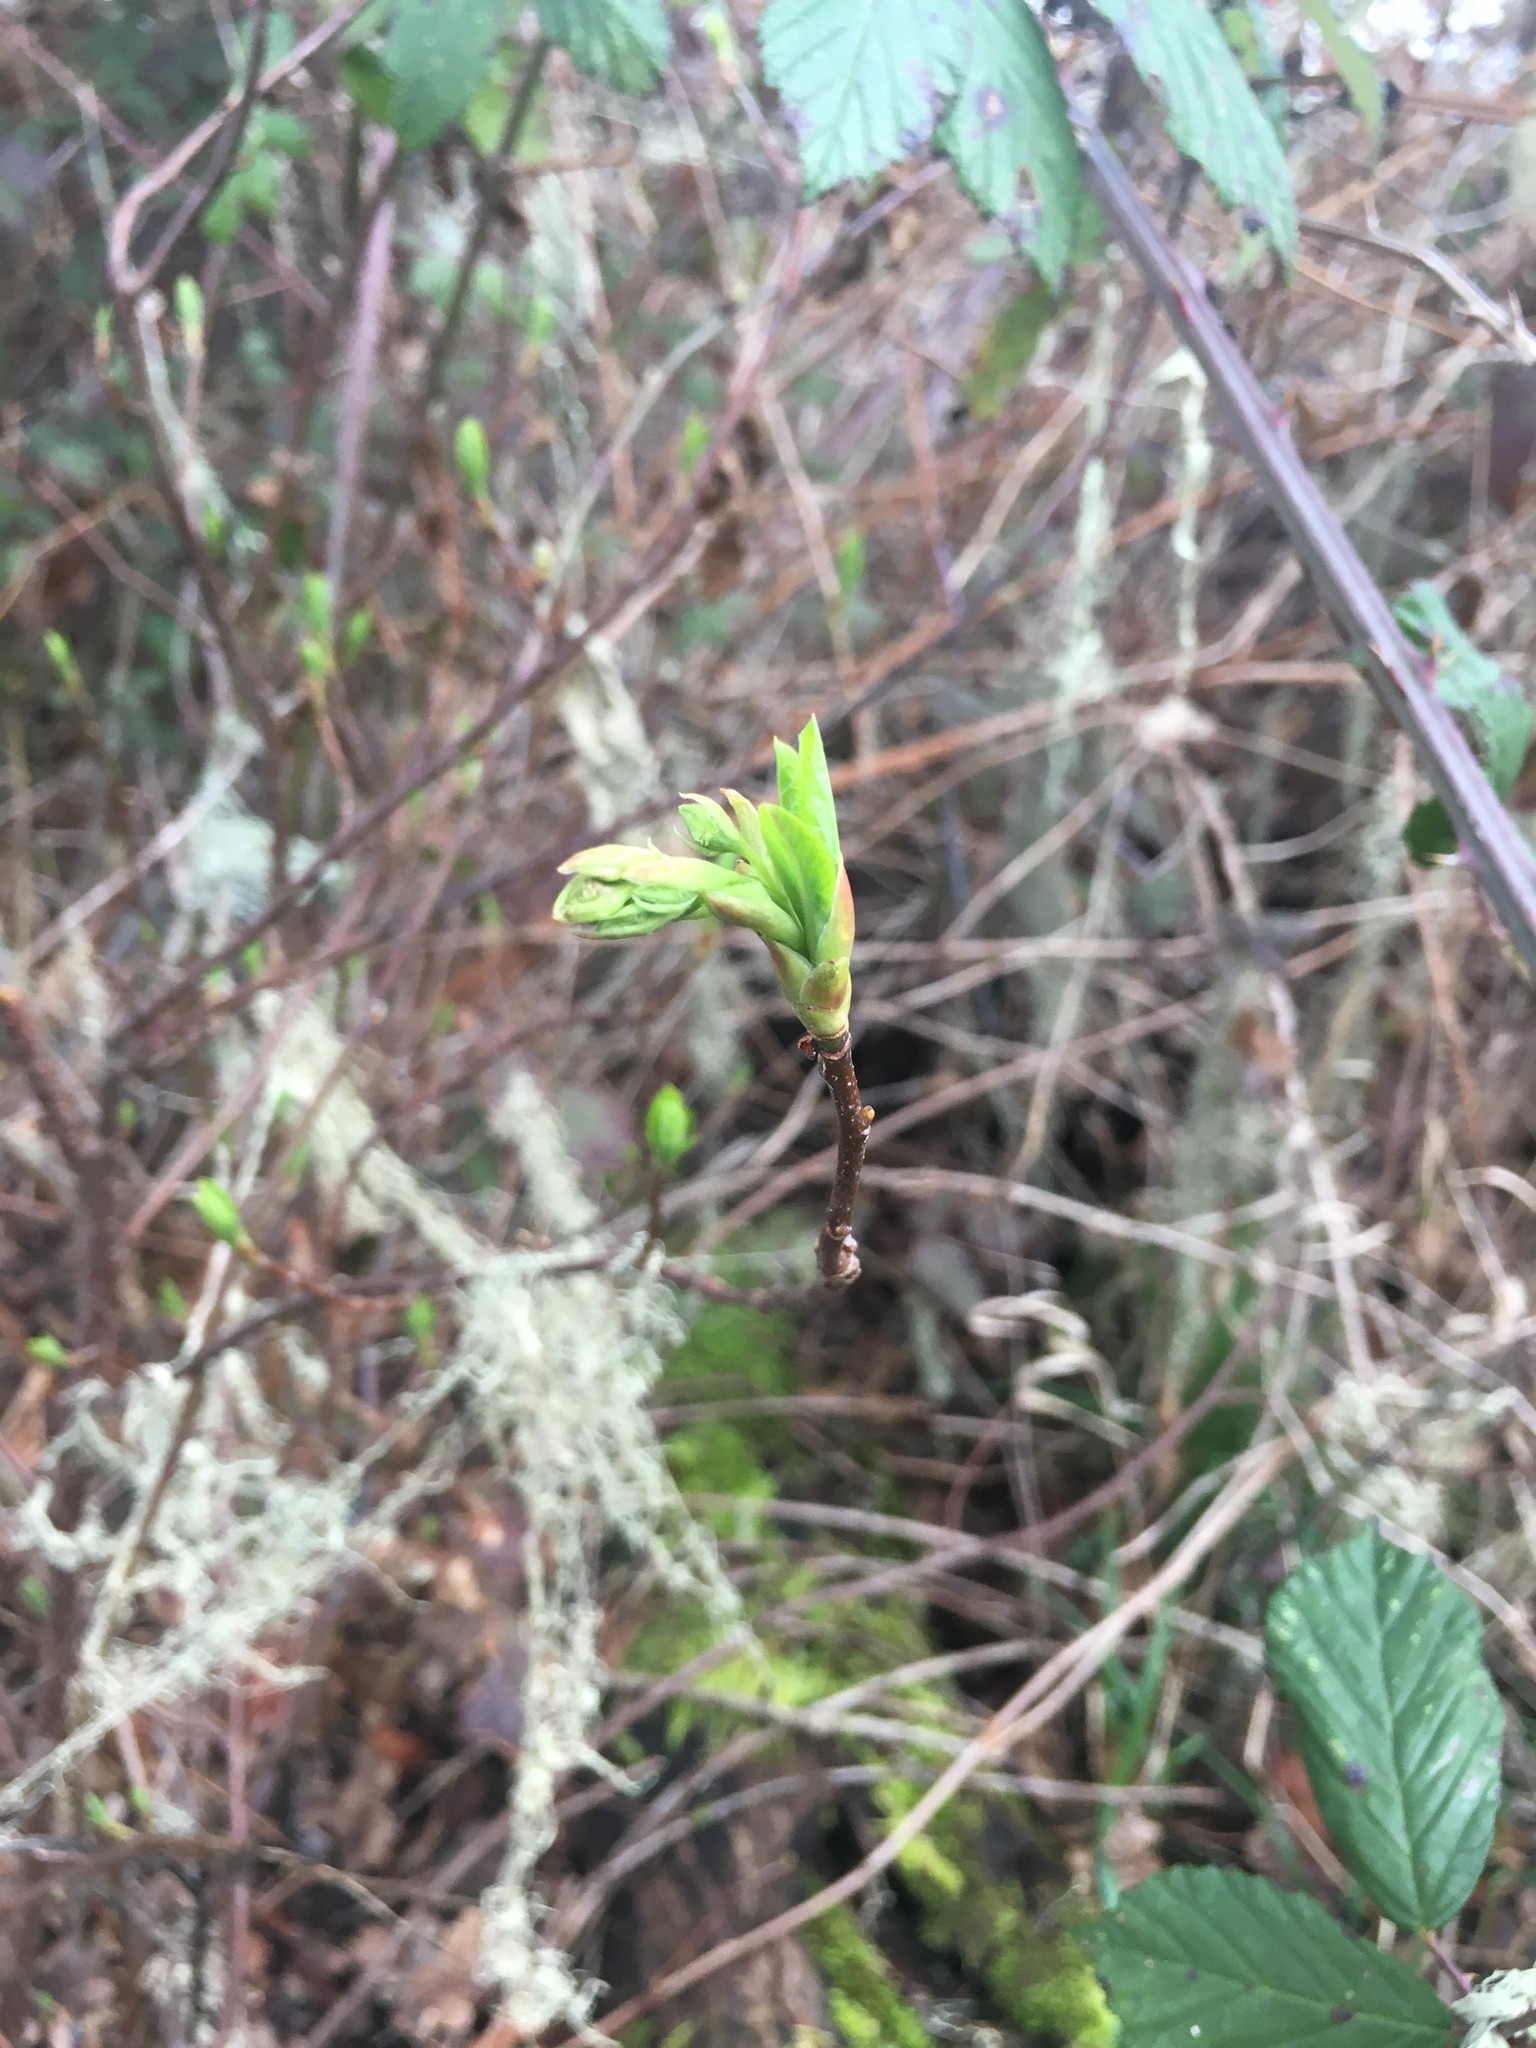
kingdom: Plantae
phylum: Tracheophyta
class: Magnoliopsida
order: Rosales
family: Rosaceae
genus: Oemleria
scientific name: Oemleria cerasiformis
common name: Osoberry
